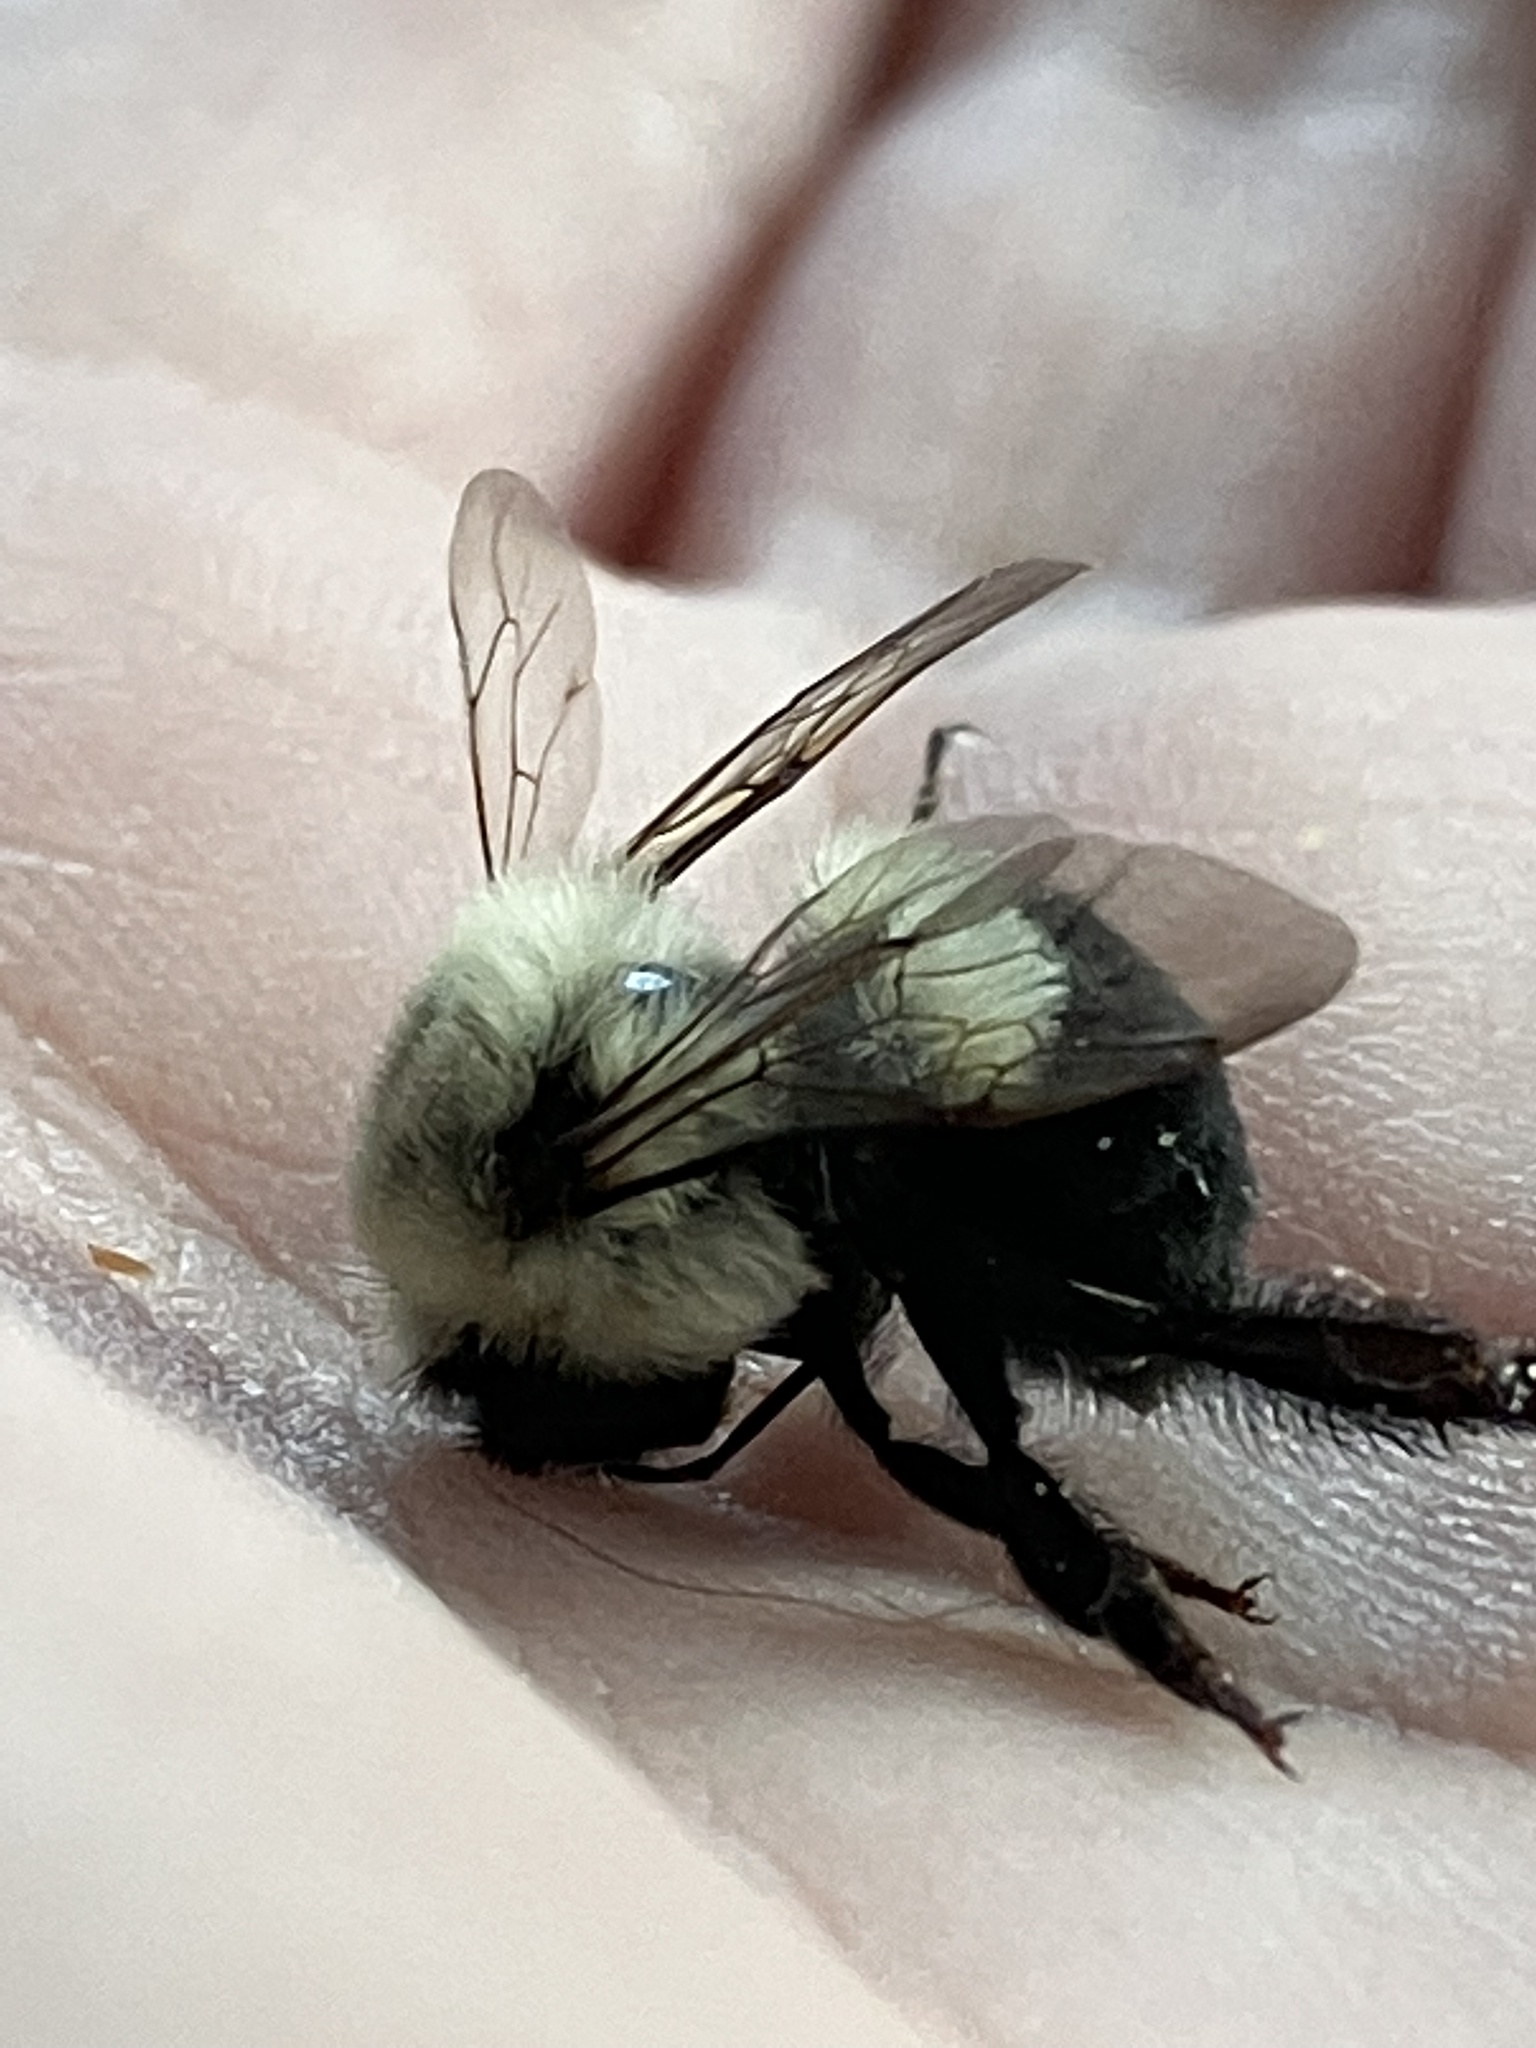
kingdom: Animalia
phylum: Arthropoda
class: Insecta
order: Hymenoptera
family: Apidae
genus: Bombus
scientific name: Bombus impatiens
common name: Common eastern bumble bee
